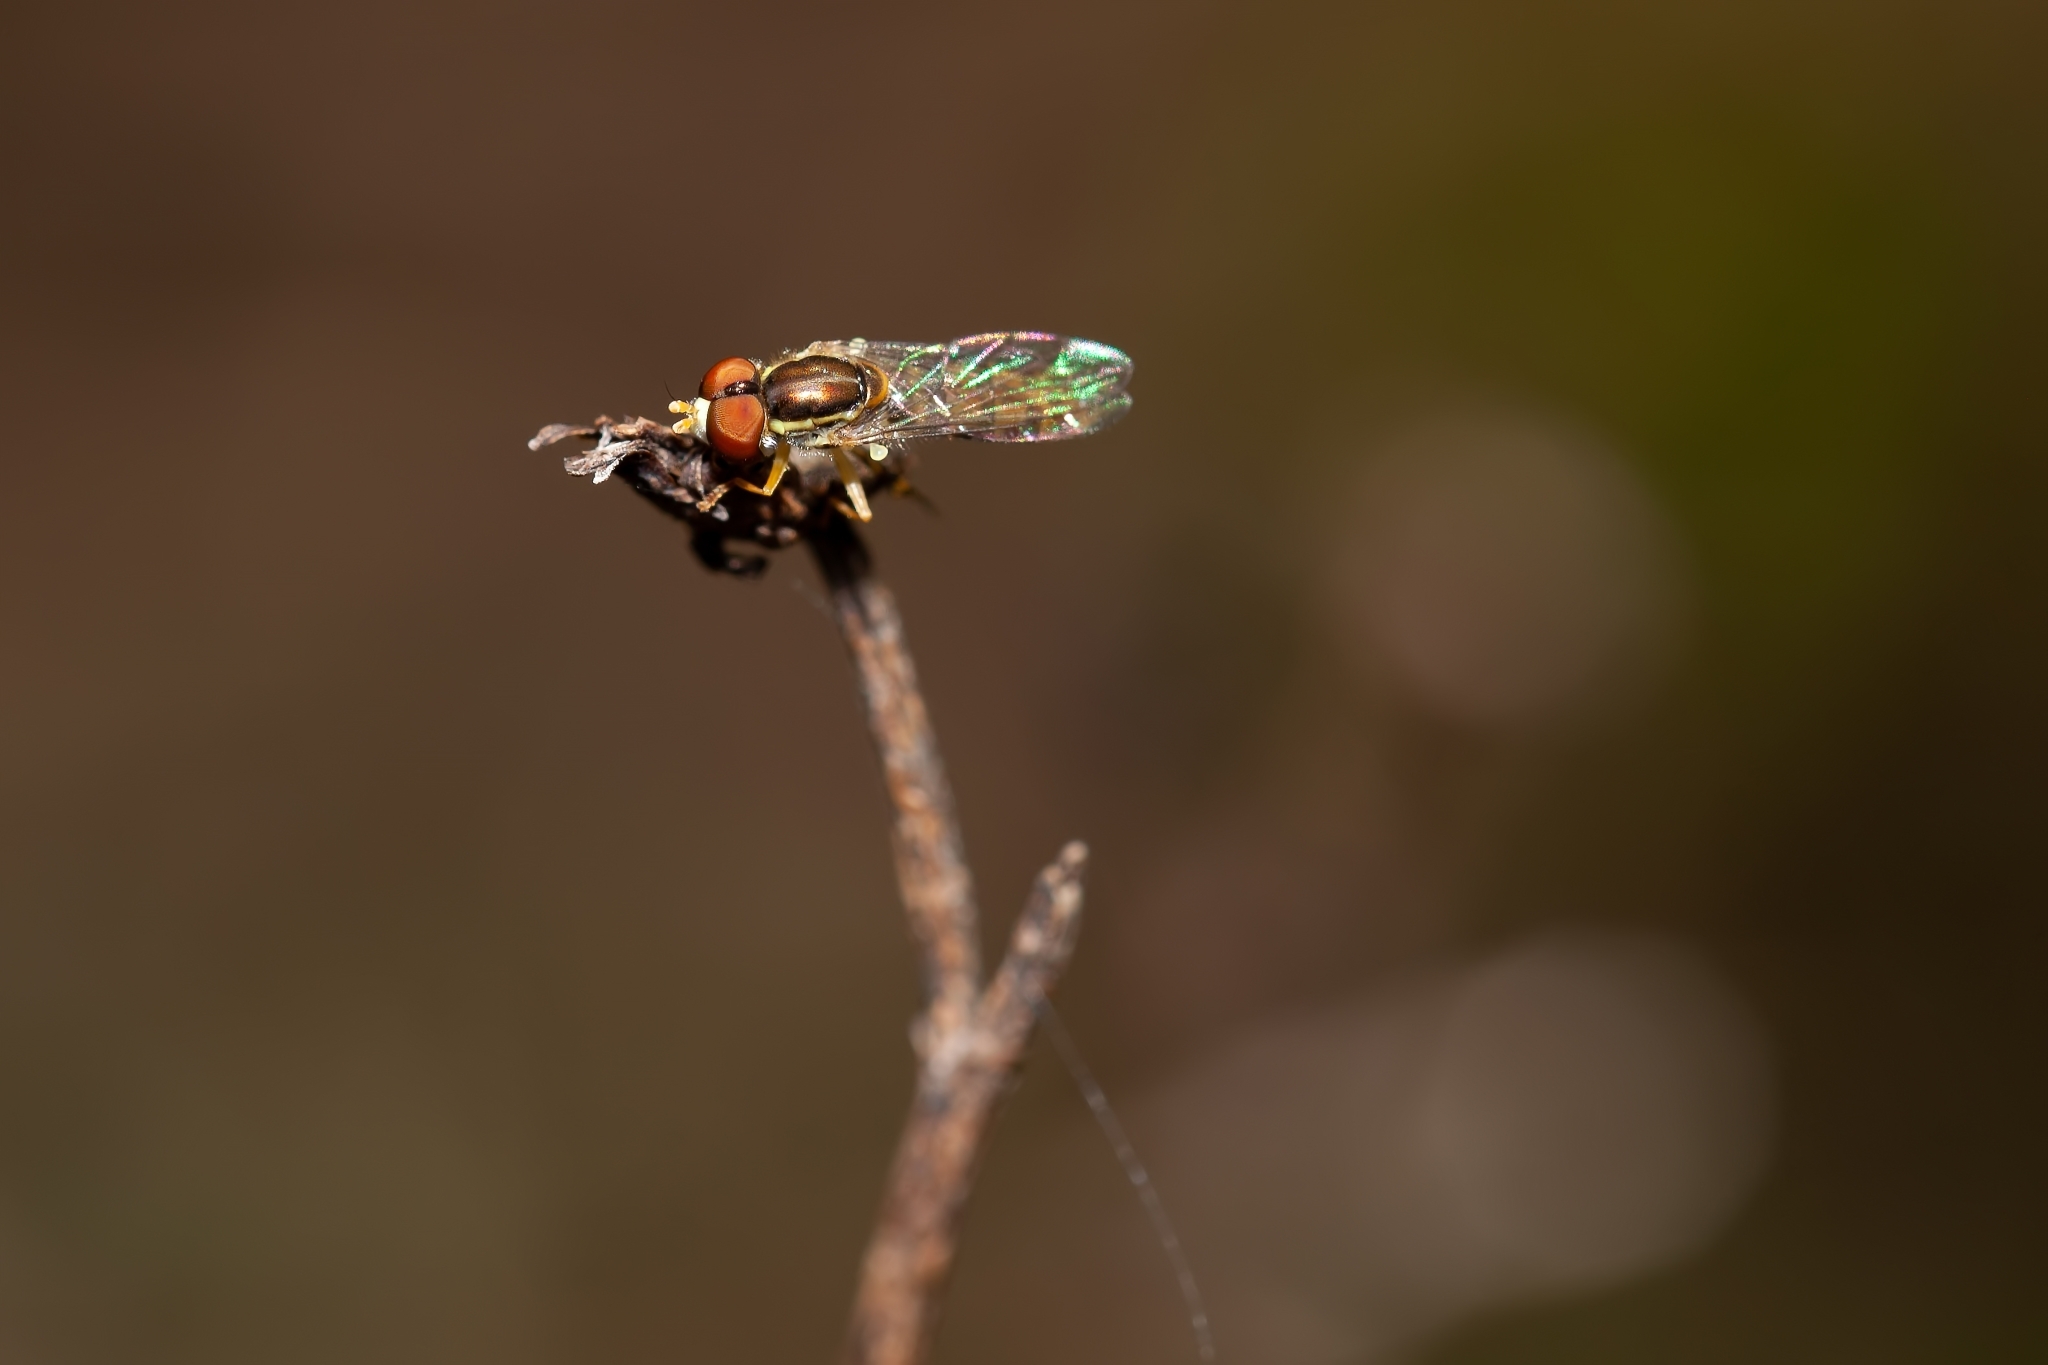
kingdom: Animalia
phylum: Arthropoda
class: Insecta
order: Diptera
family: Syrphidae
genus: Toxomerus
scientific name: Toxomerus floralis
